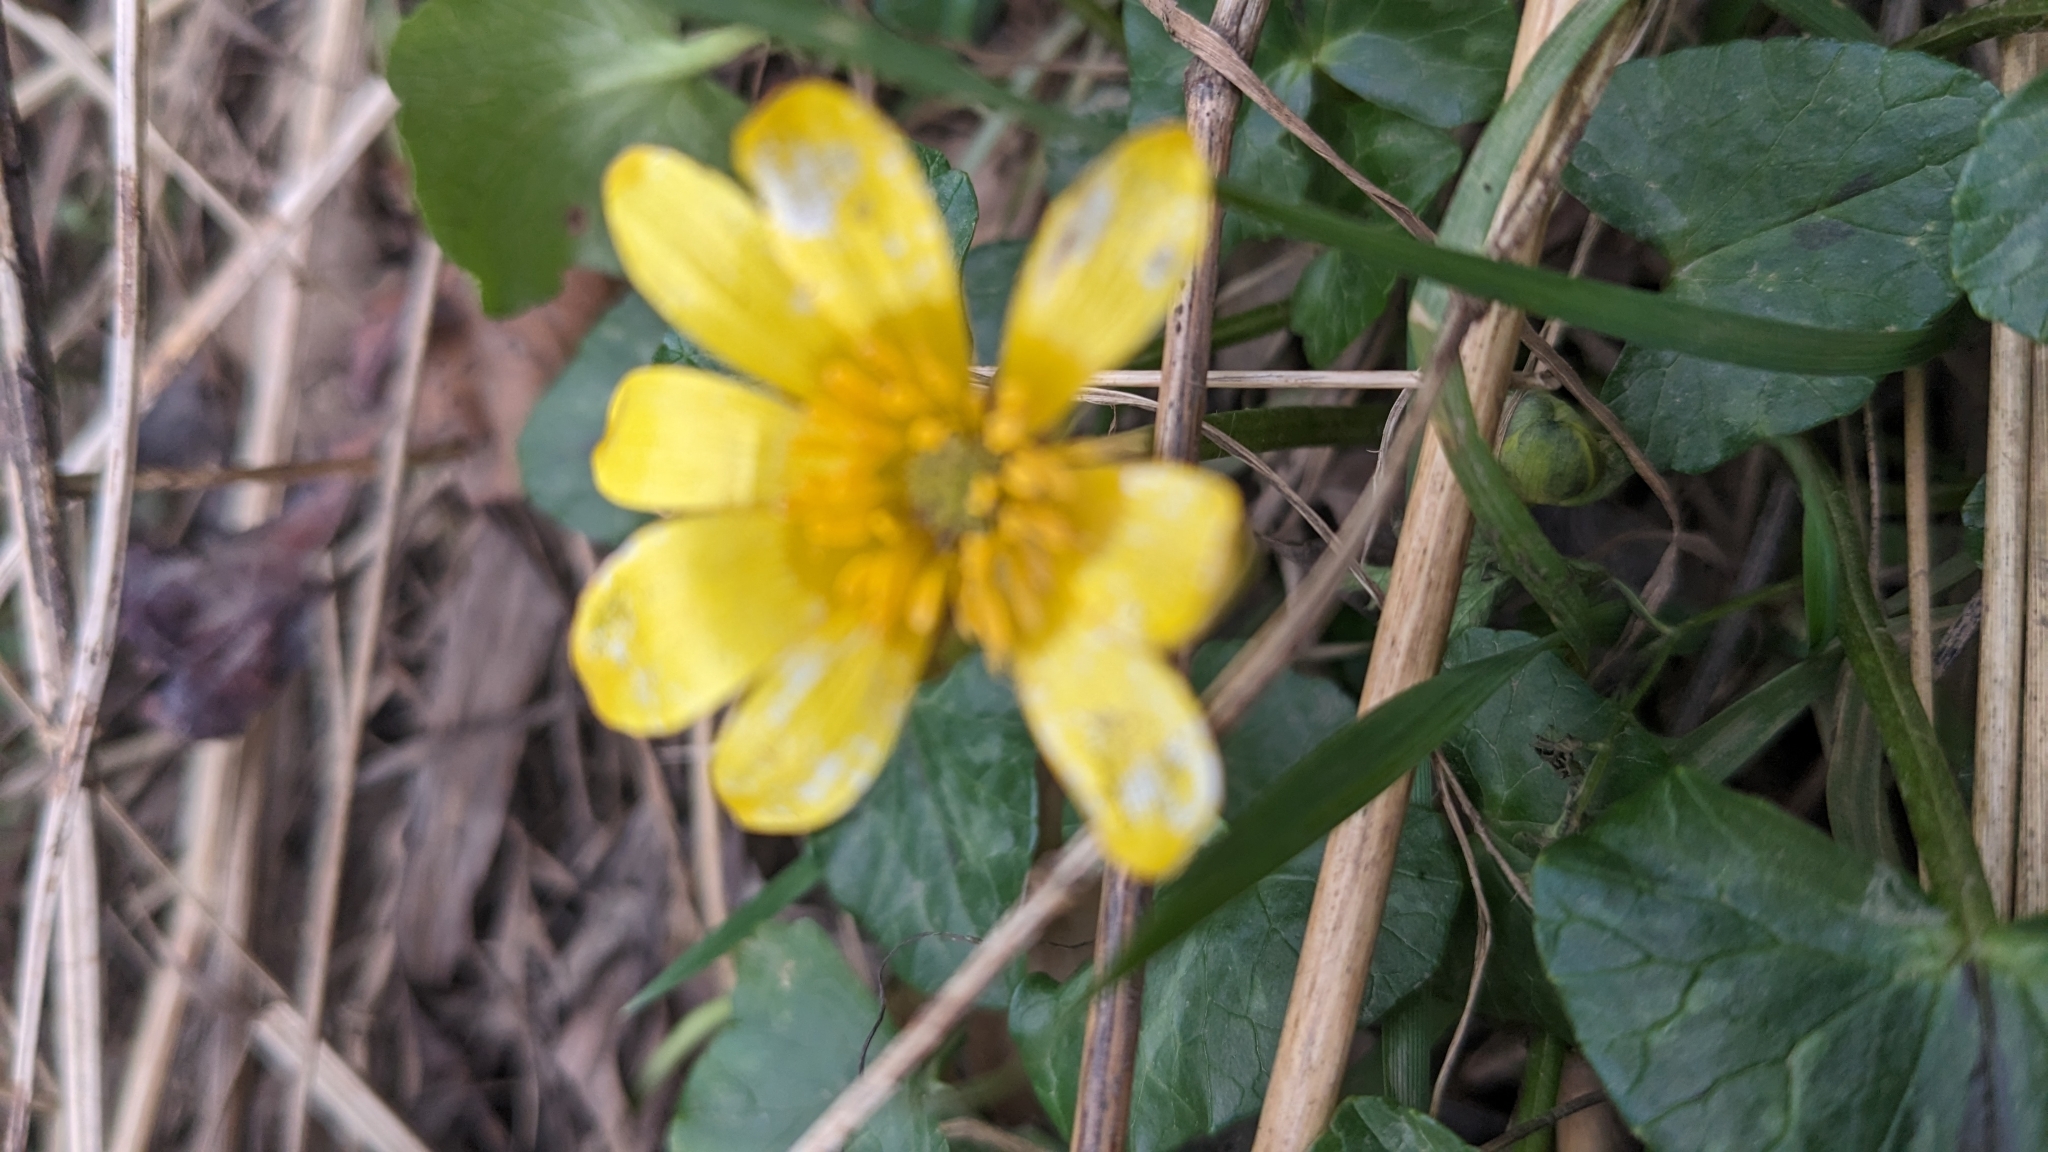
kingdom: Plantae
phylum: Tracheophyta
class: Magnoliopsida
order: Ranunculales
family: Ranunculaceae
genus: Ficaria
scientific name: Ficaria verna
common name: Lesser celandine
